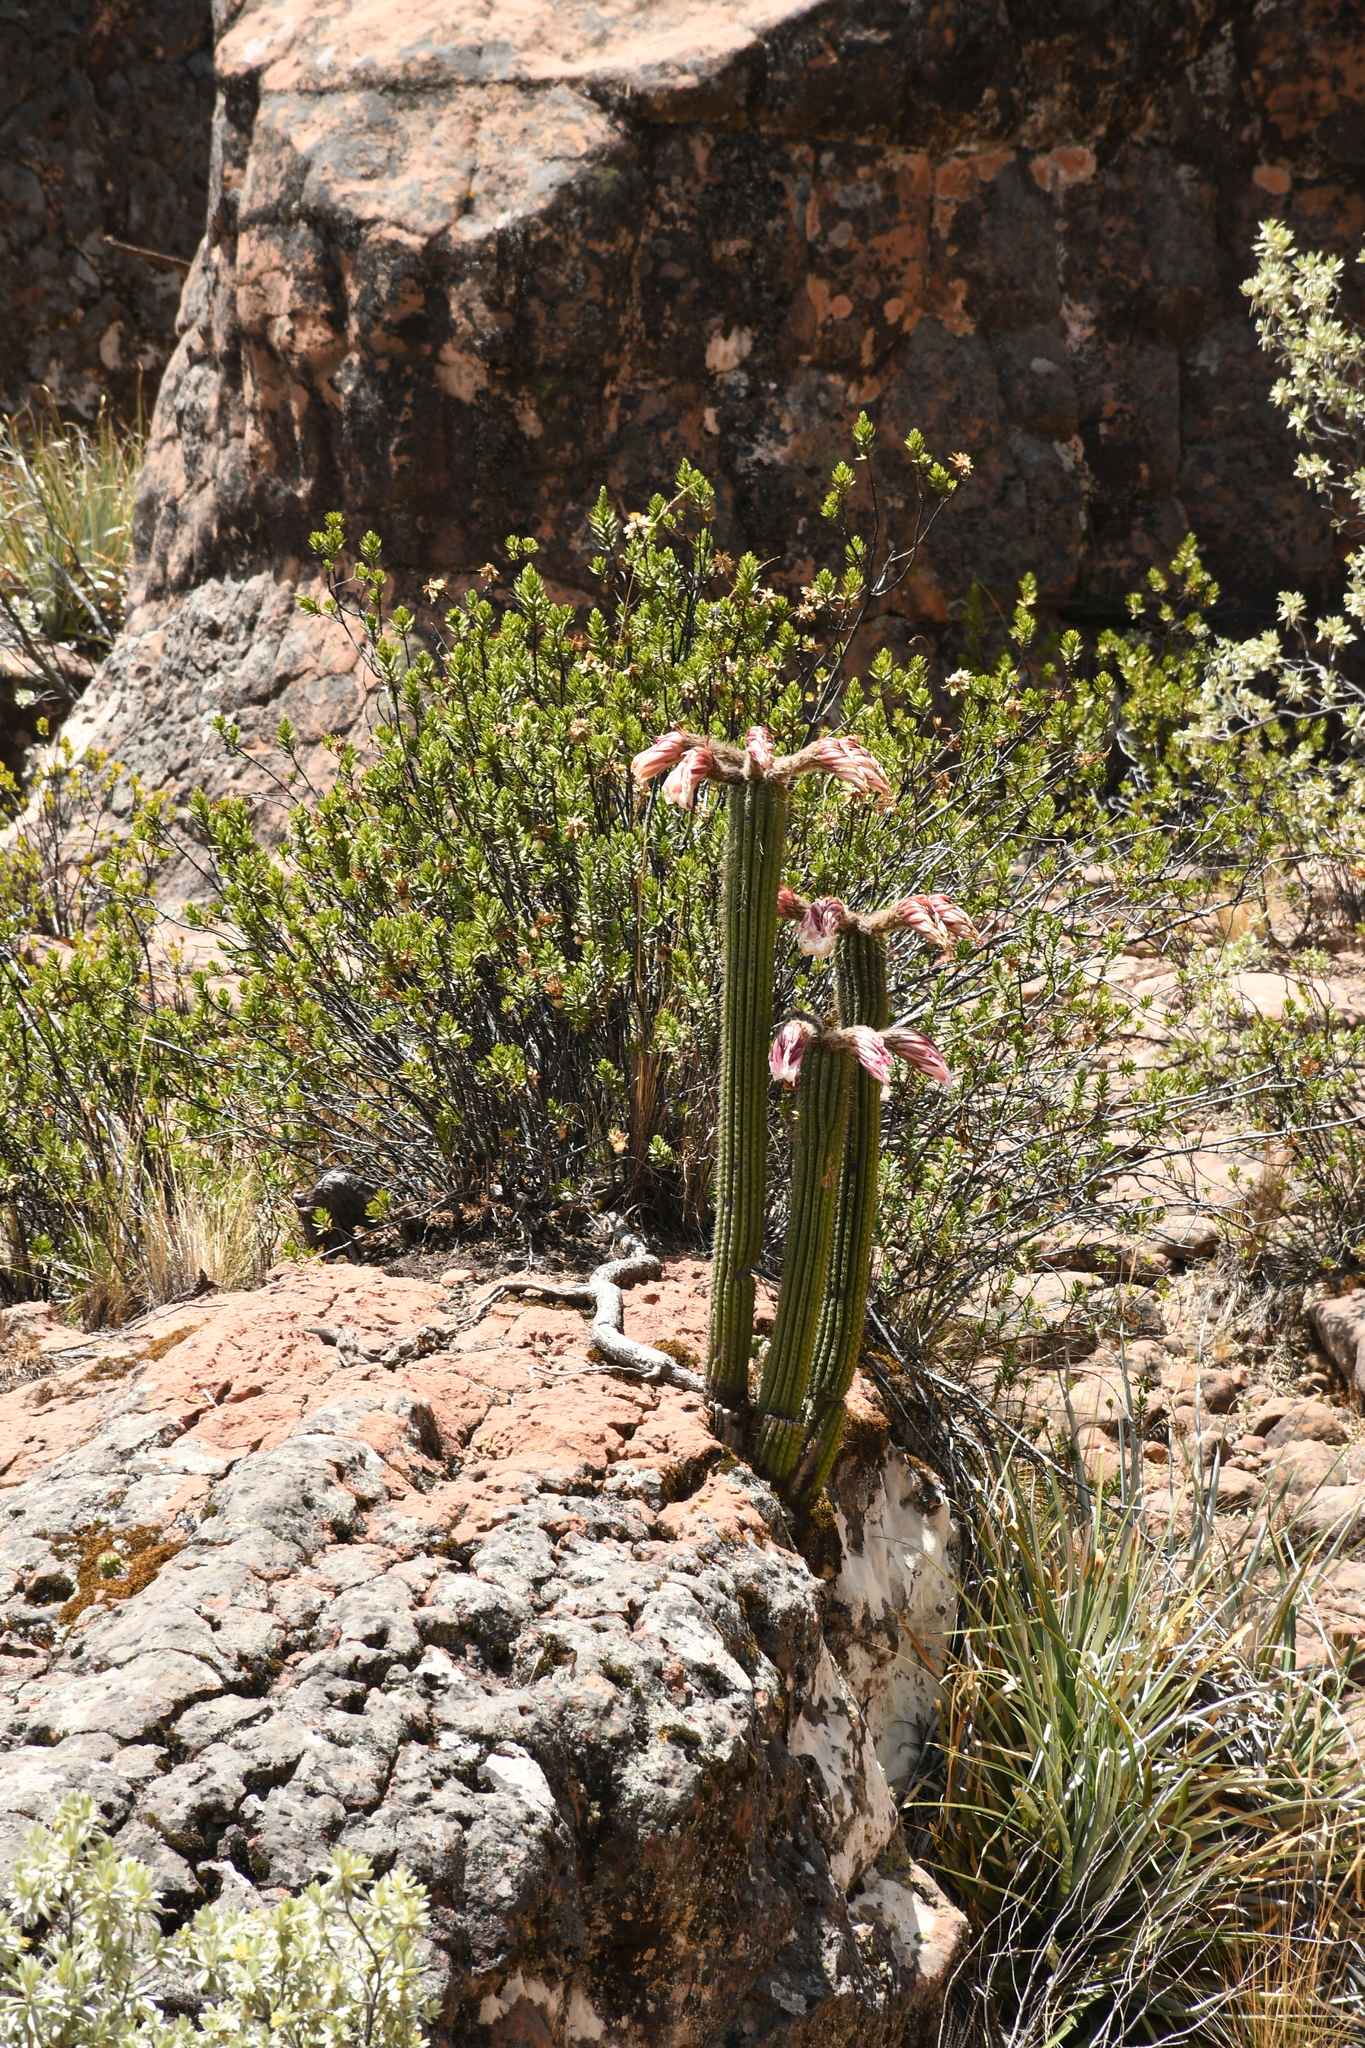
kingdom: Plantae
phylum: Tracheophyta
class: Magnoliopsida
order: Caryophyllales
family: Cactaceae
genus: Soehrensia
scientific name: Soehrensia volliana
